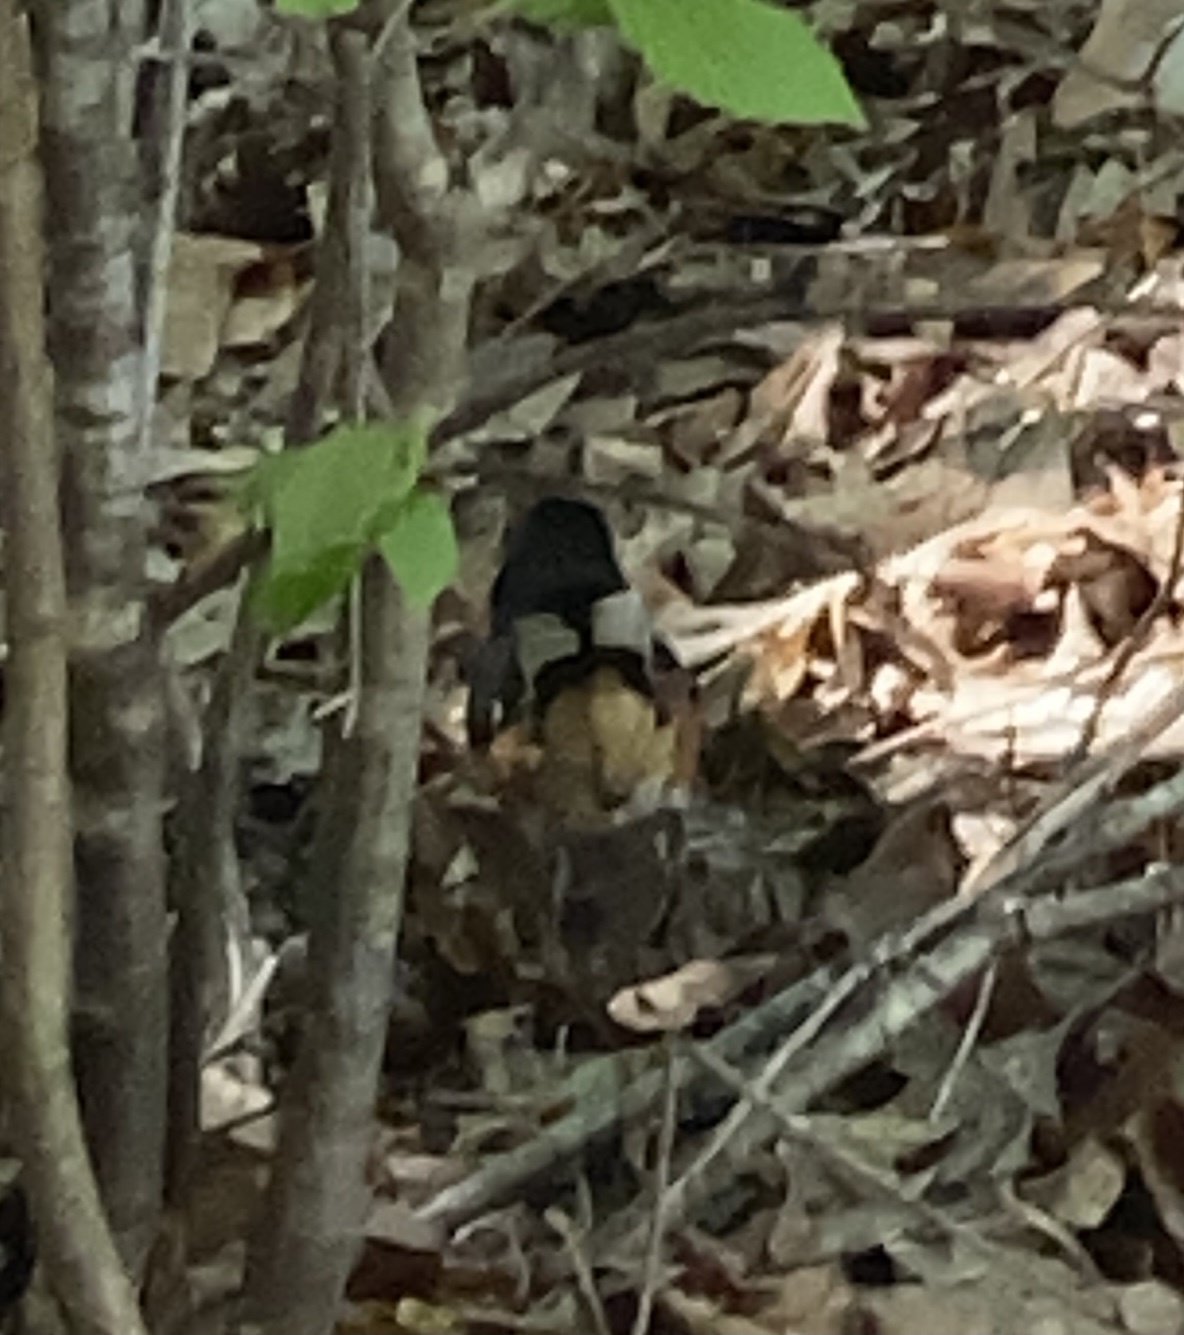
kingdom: Animalia
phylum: Chordata
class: Aves
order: Passeriformes
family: Passerellidae
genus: Pipilo
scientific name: Pipilo erythrophthalmus
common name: Eastern towhee
